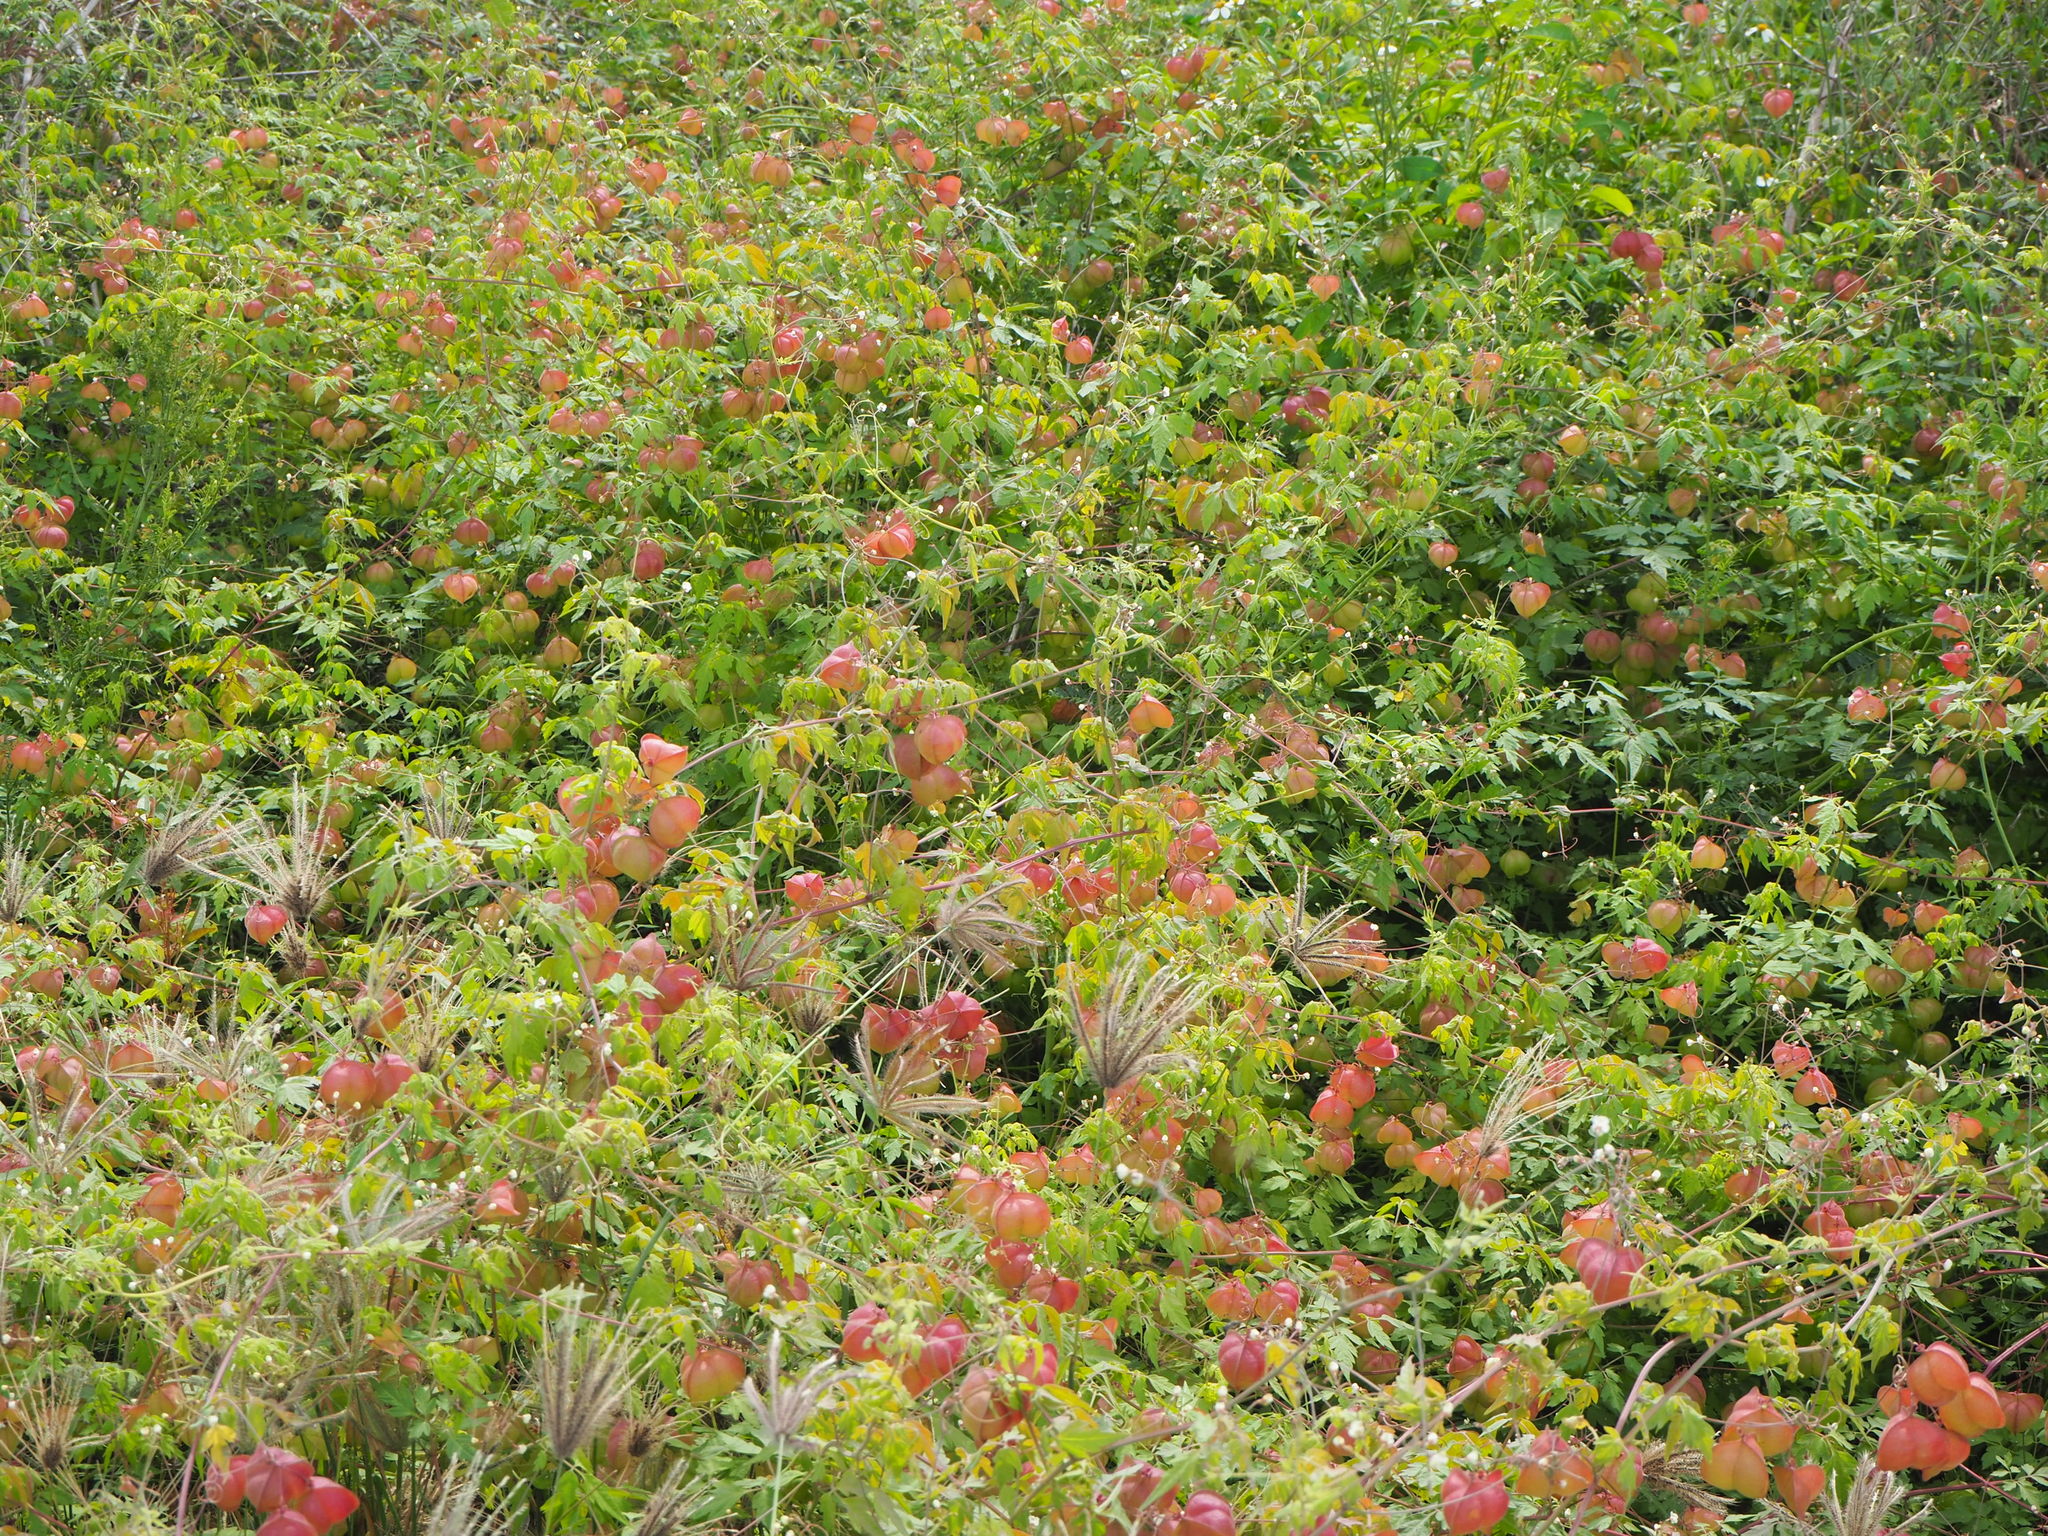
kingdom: Plantae
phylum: Tracheophyta
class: Magnoliopsida
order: Sapindales
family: Sapindaceae
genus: Cardiospermum
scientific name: Cardiospermum halicacabum
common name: Balloon vine
